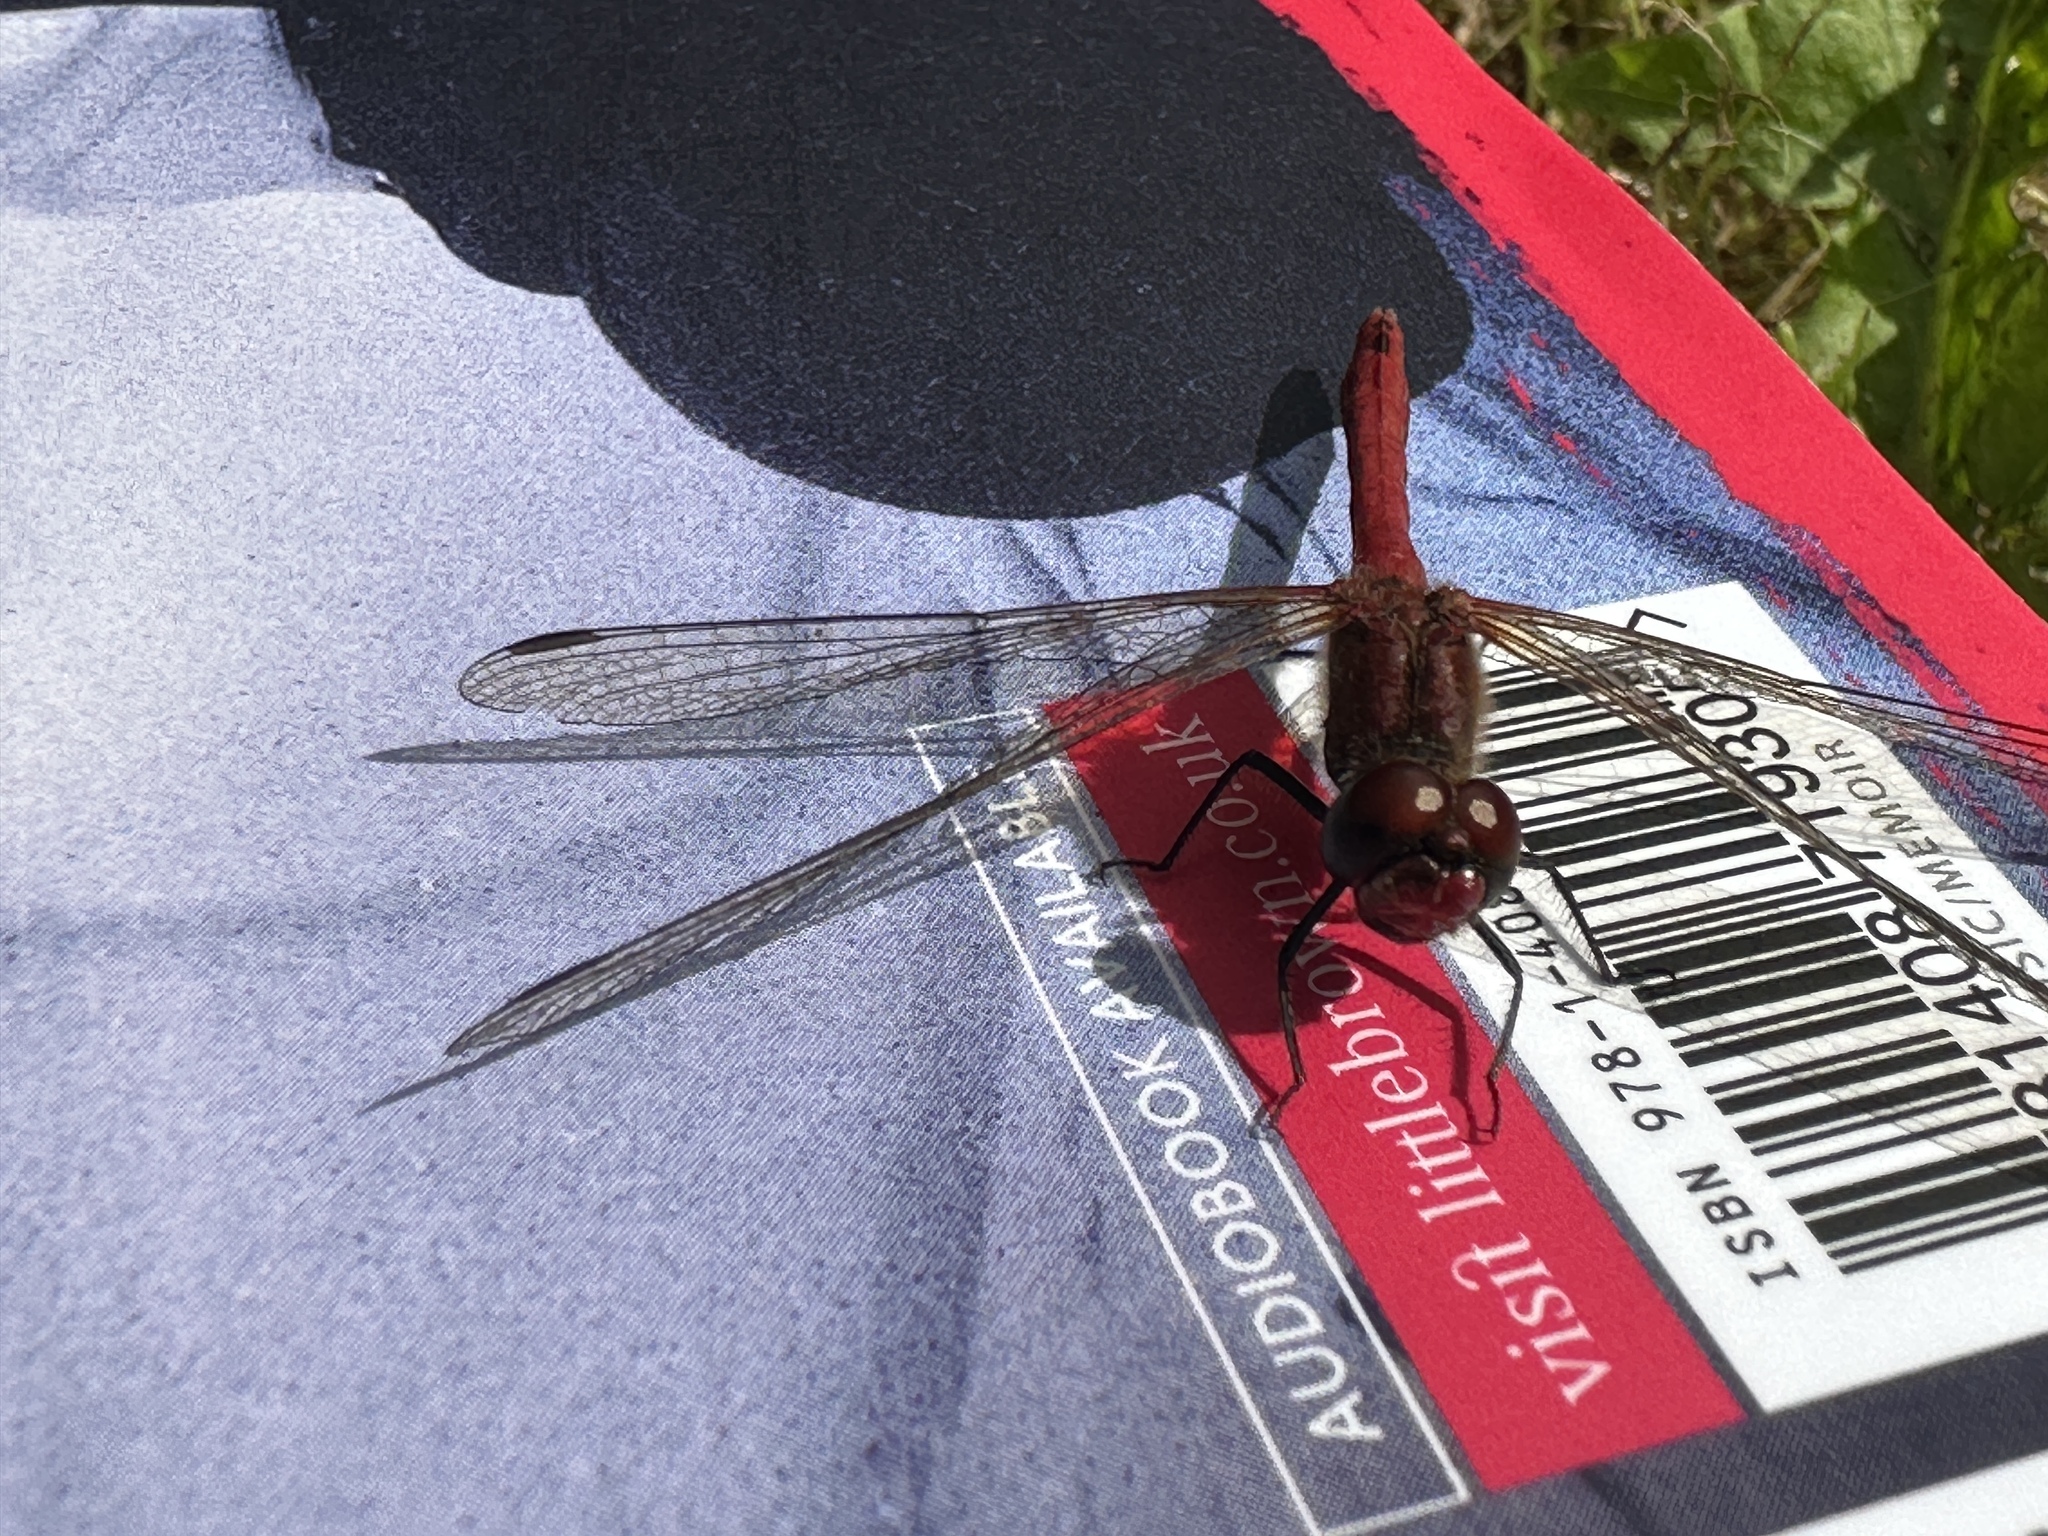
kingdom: Animalia
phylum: Arthropoda
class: Insecta
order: Odonata
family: Libellulidae
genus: Sympetrum
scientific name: Sympetrum sanguineum
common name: Ruddy darter
